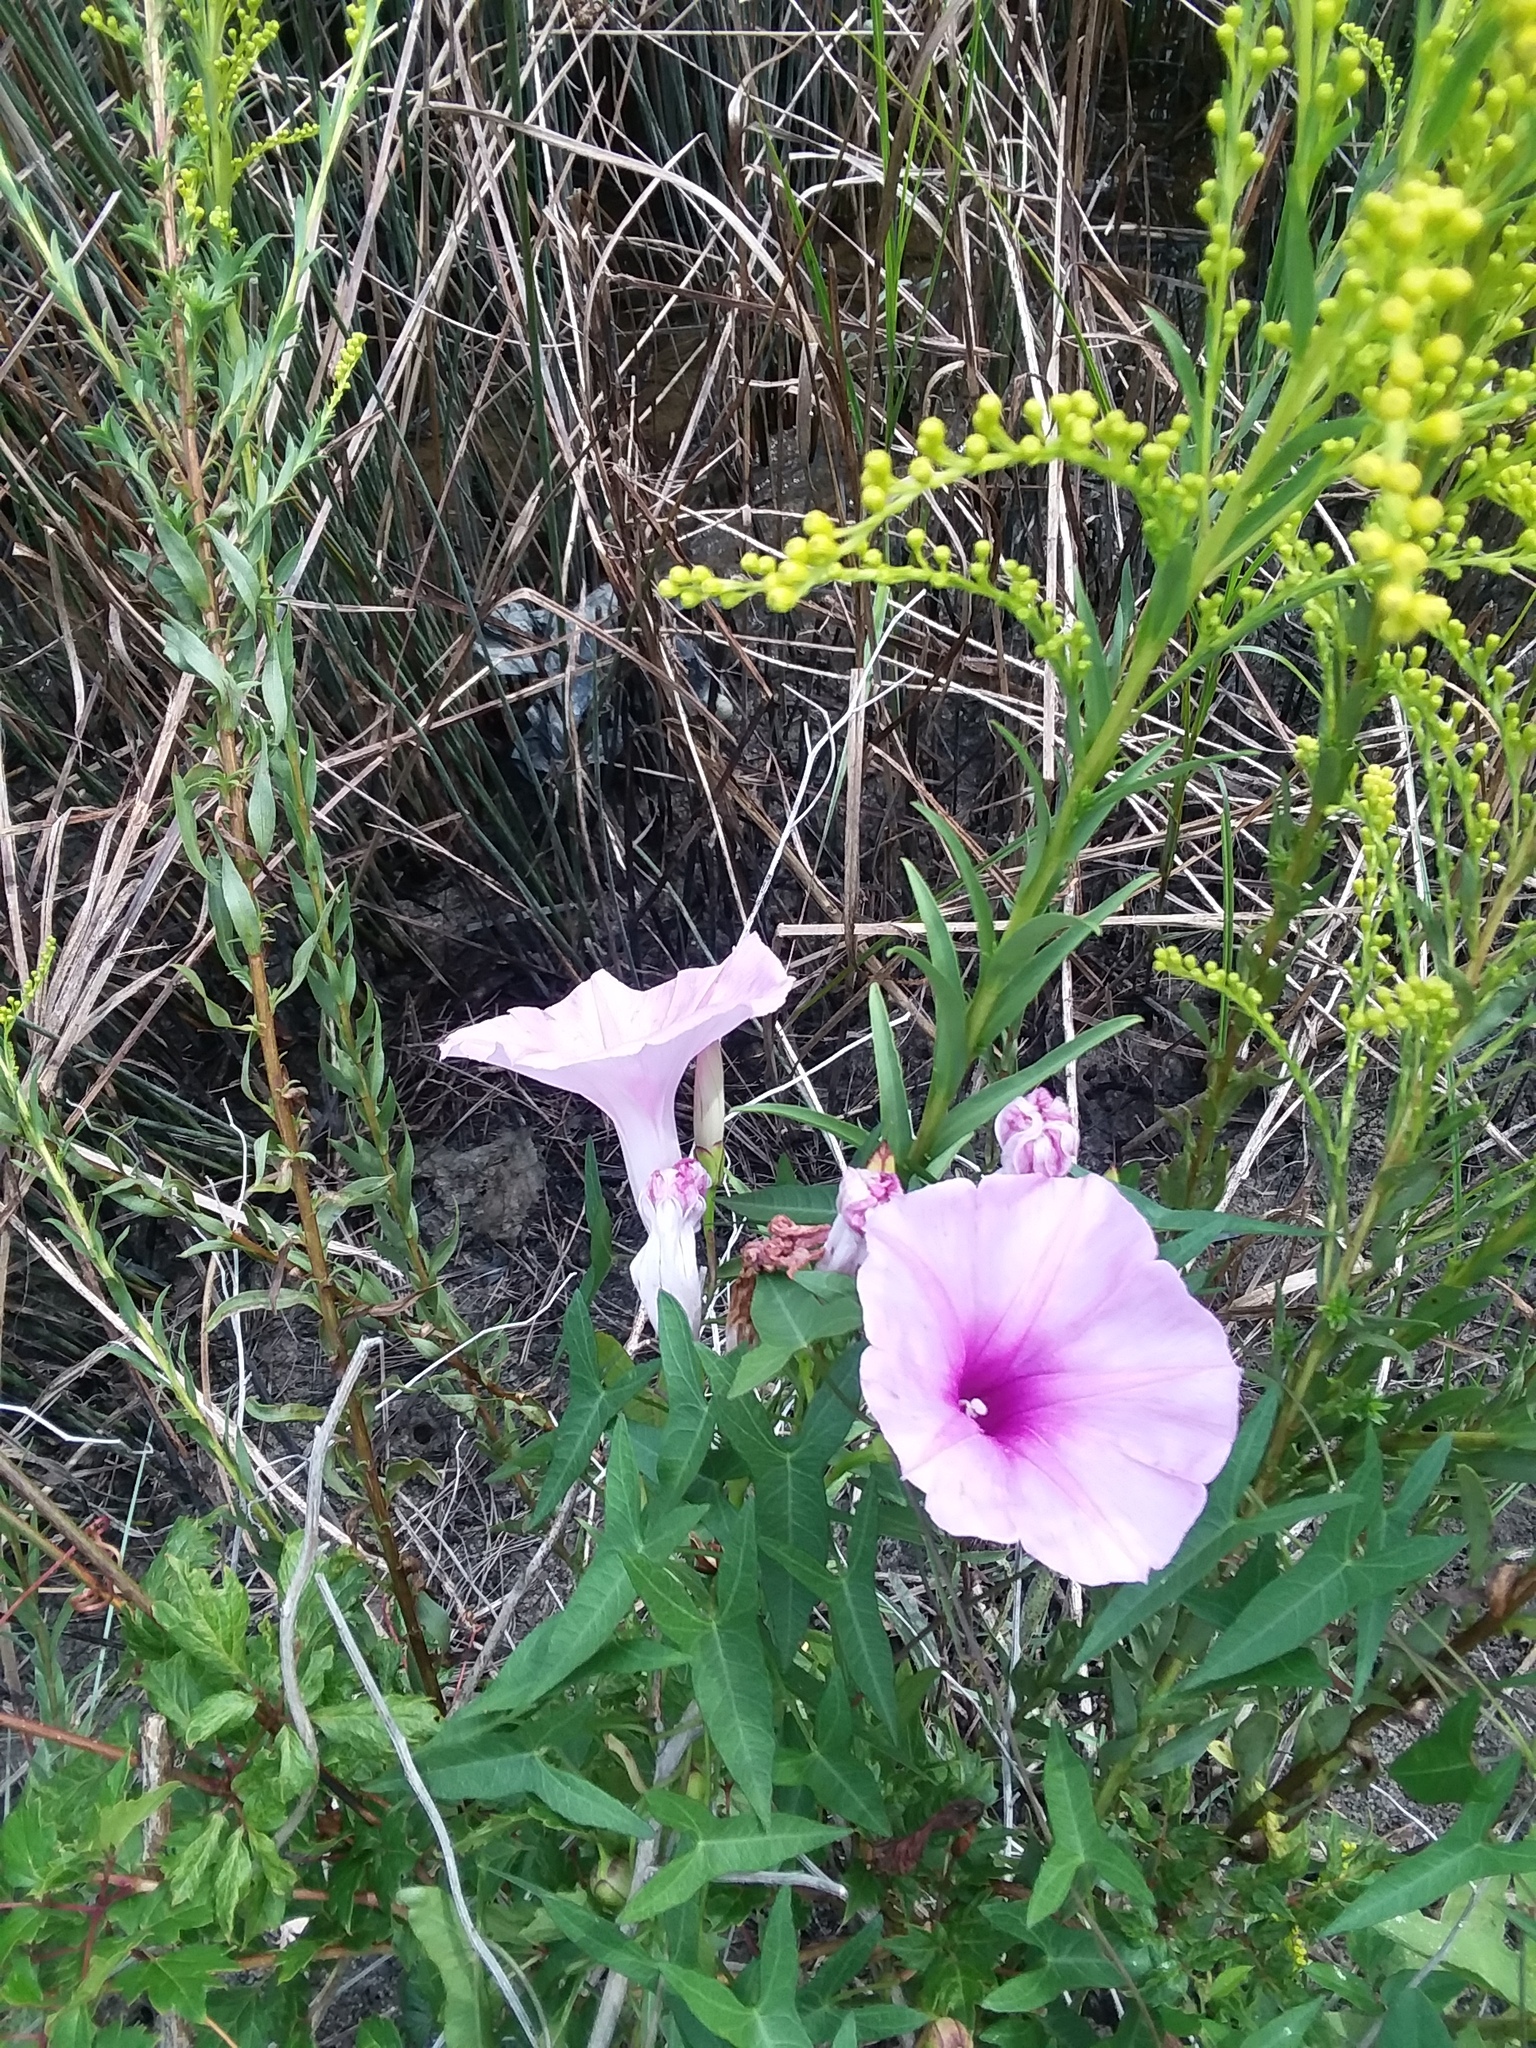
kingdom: Plantae
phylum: Tracheophyta
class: Magnoliopsida
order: Solanales
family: Convolvulaceae
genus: Ipomoea
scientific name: Ipomoea sagittata
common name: Saltmarsh morning glory
